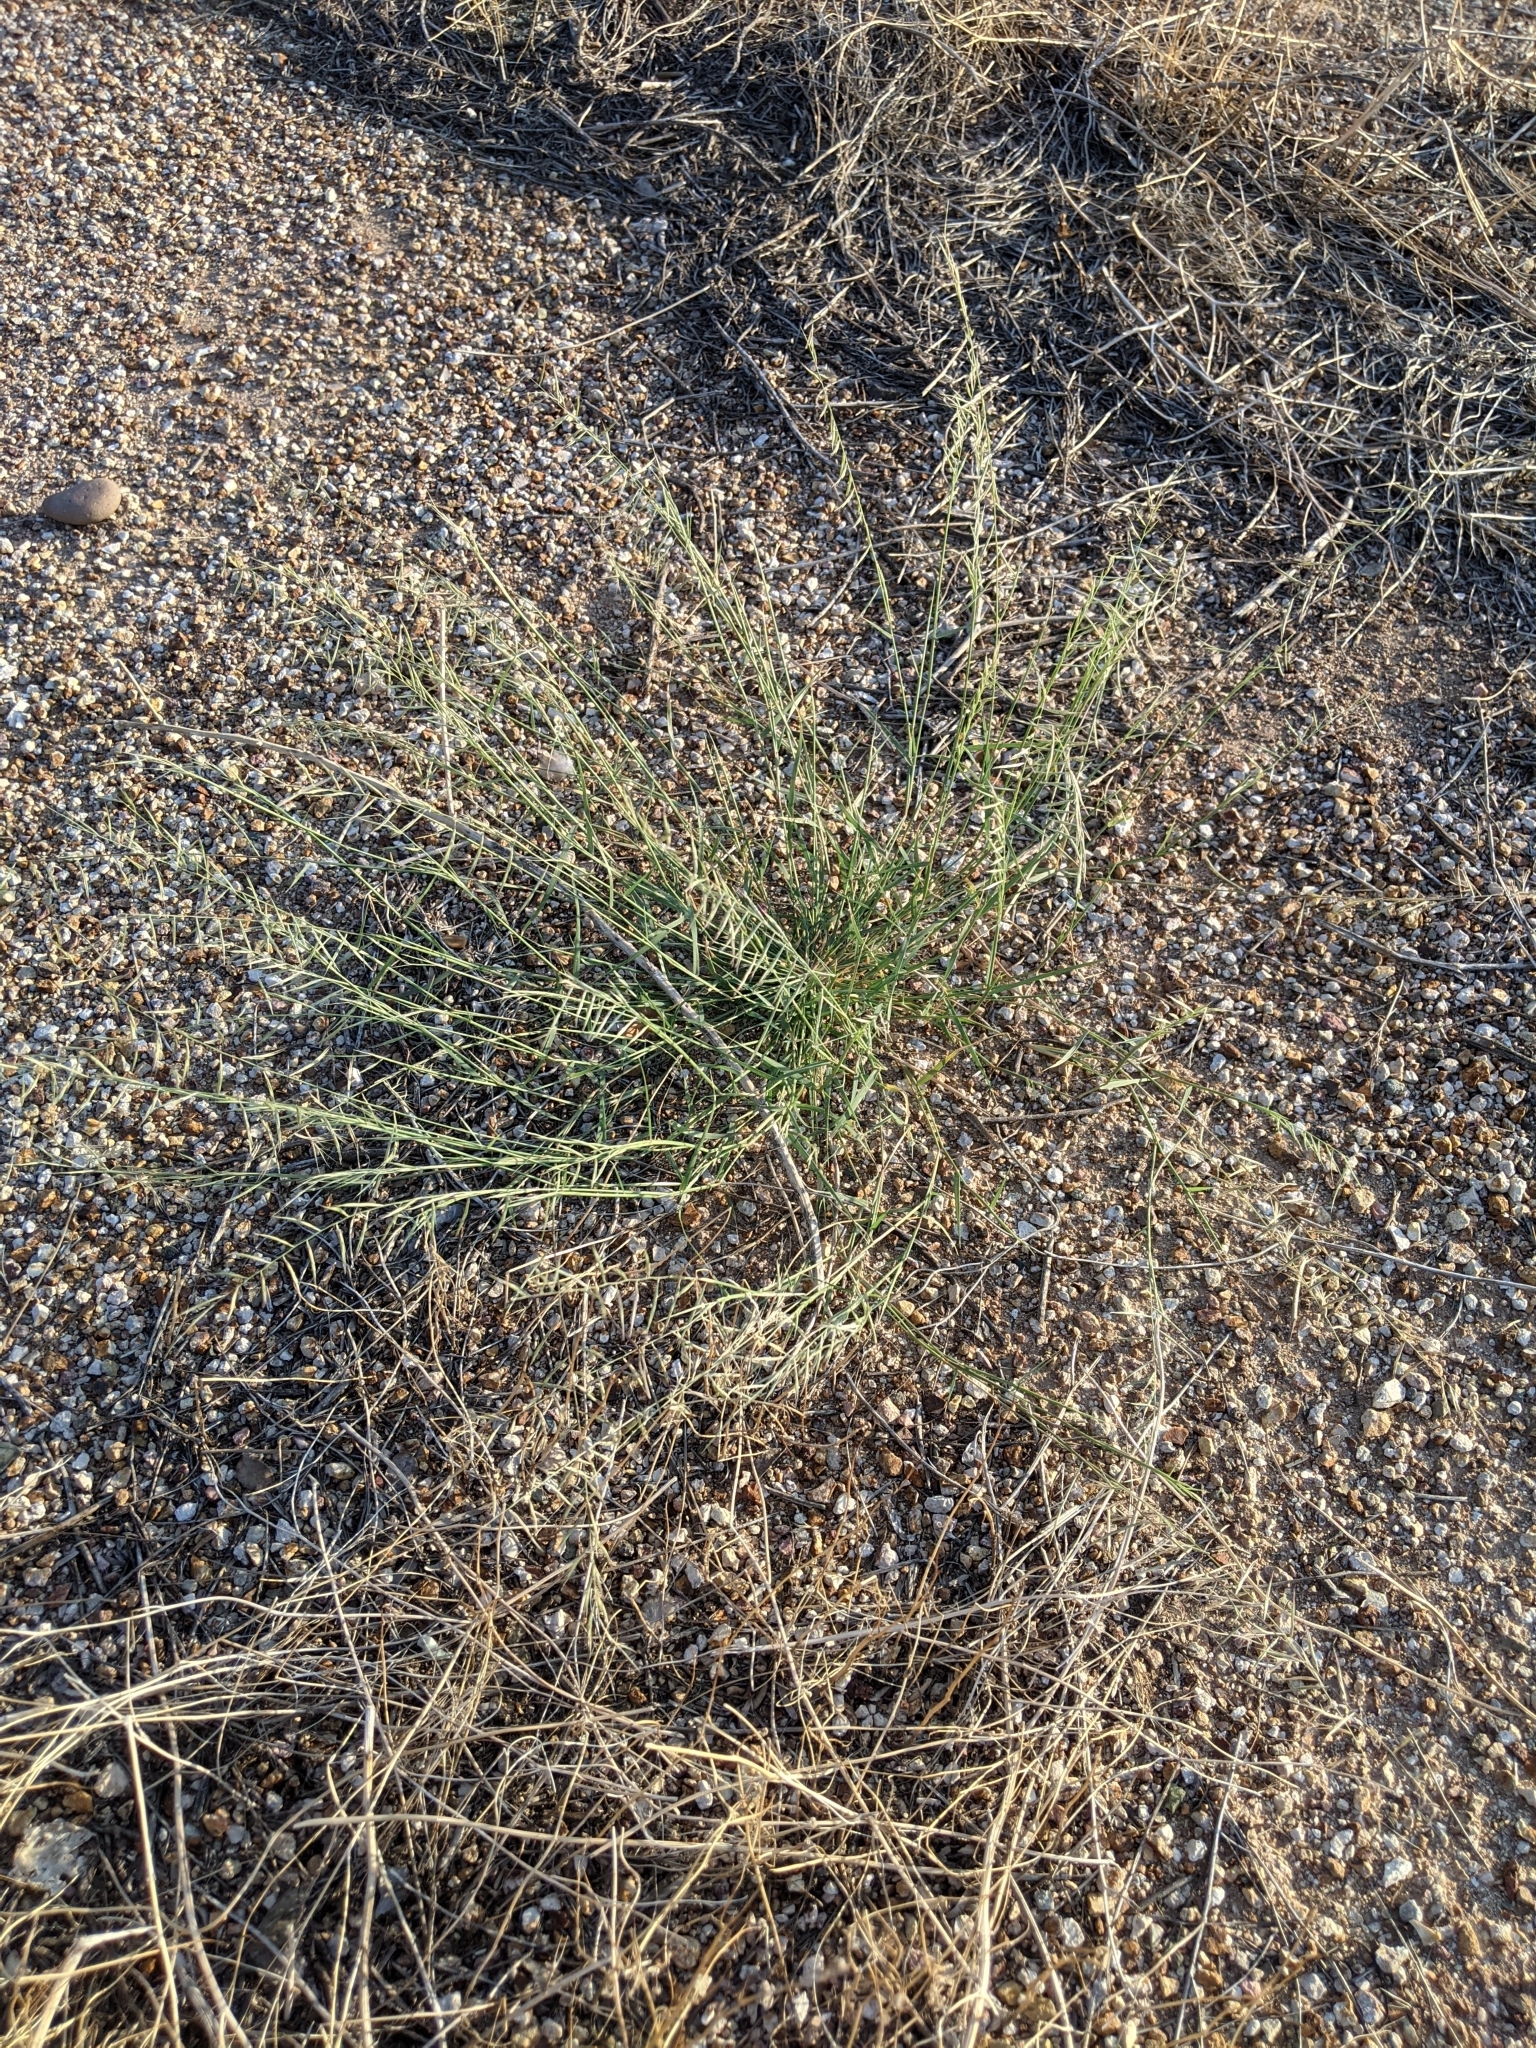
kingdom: Plantae
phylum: Tracheophyta
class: Liliopsida
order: Poales
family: Poaceae
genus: Bouteloua
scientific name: Bouteloua aristidoides
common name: Needle grama
